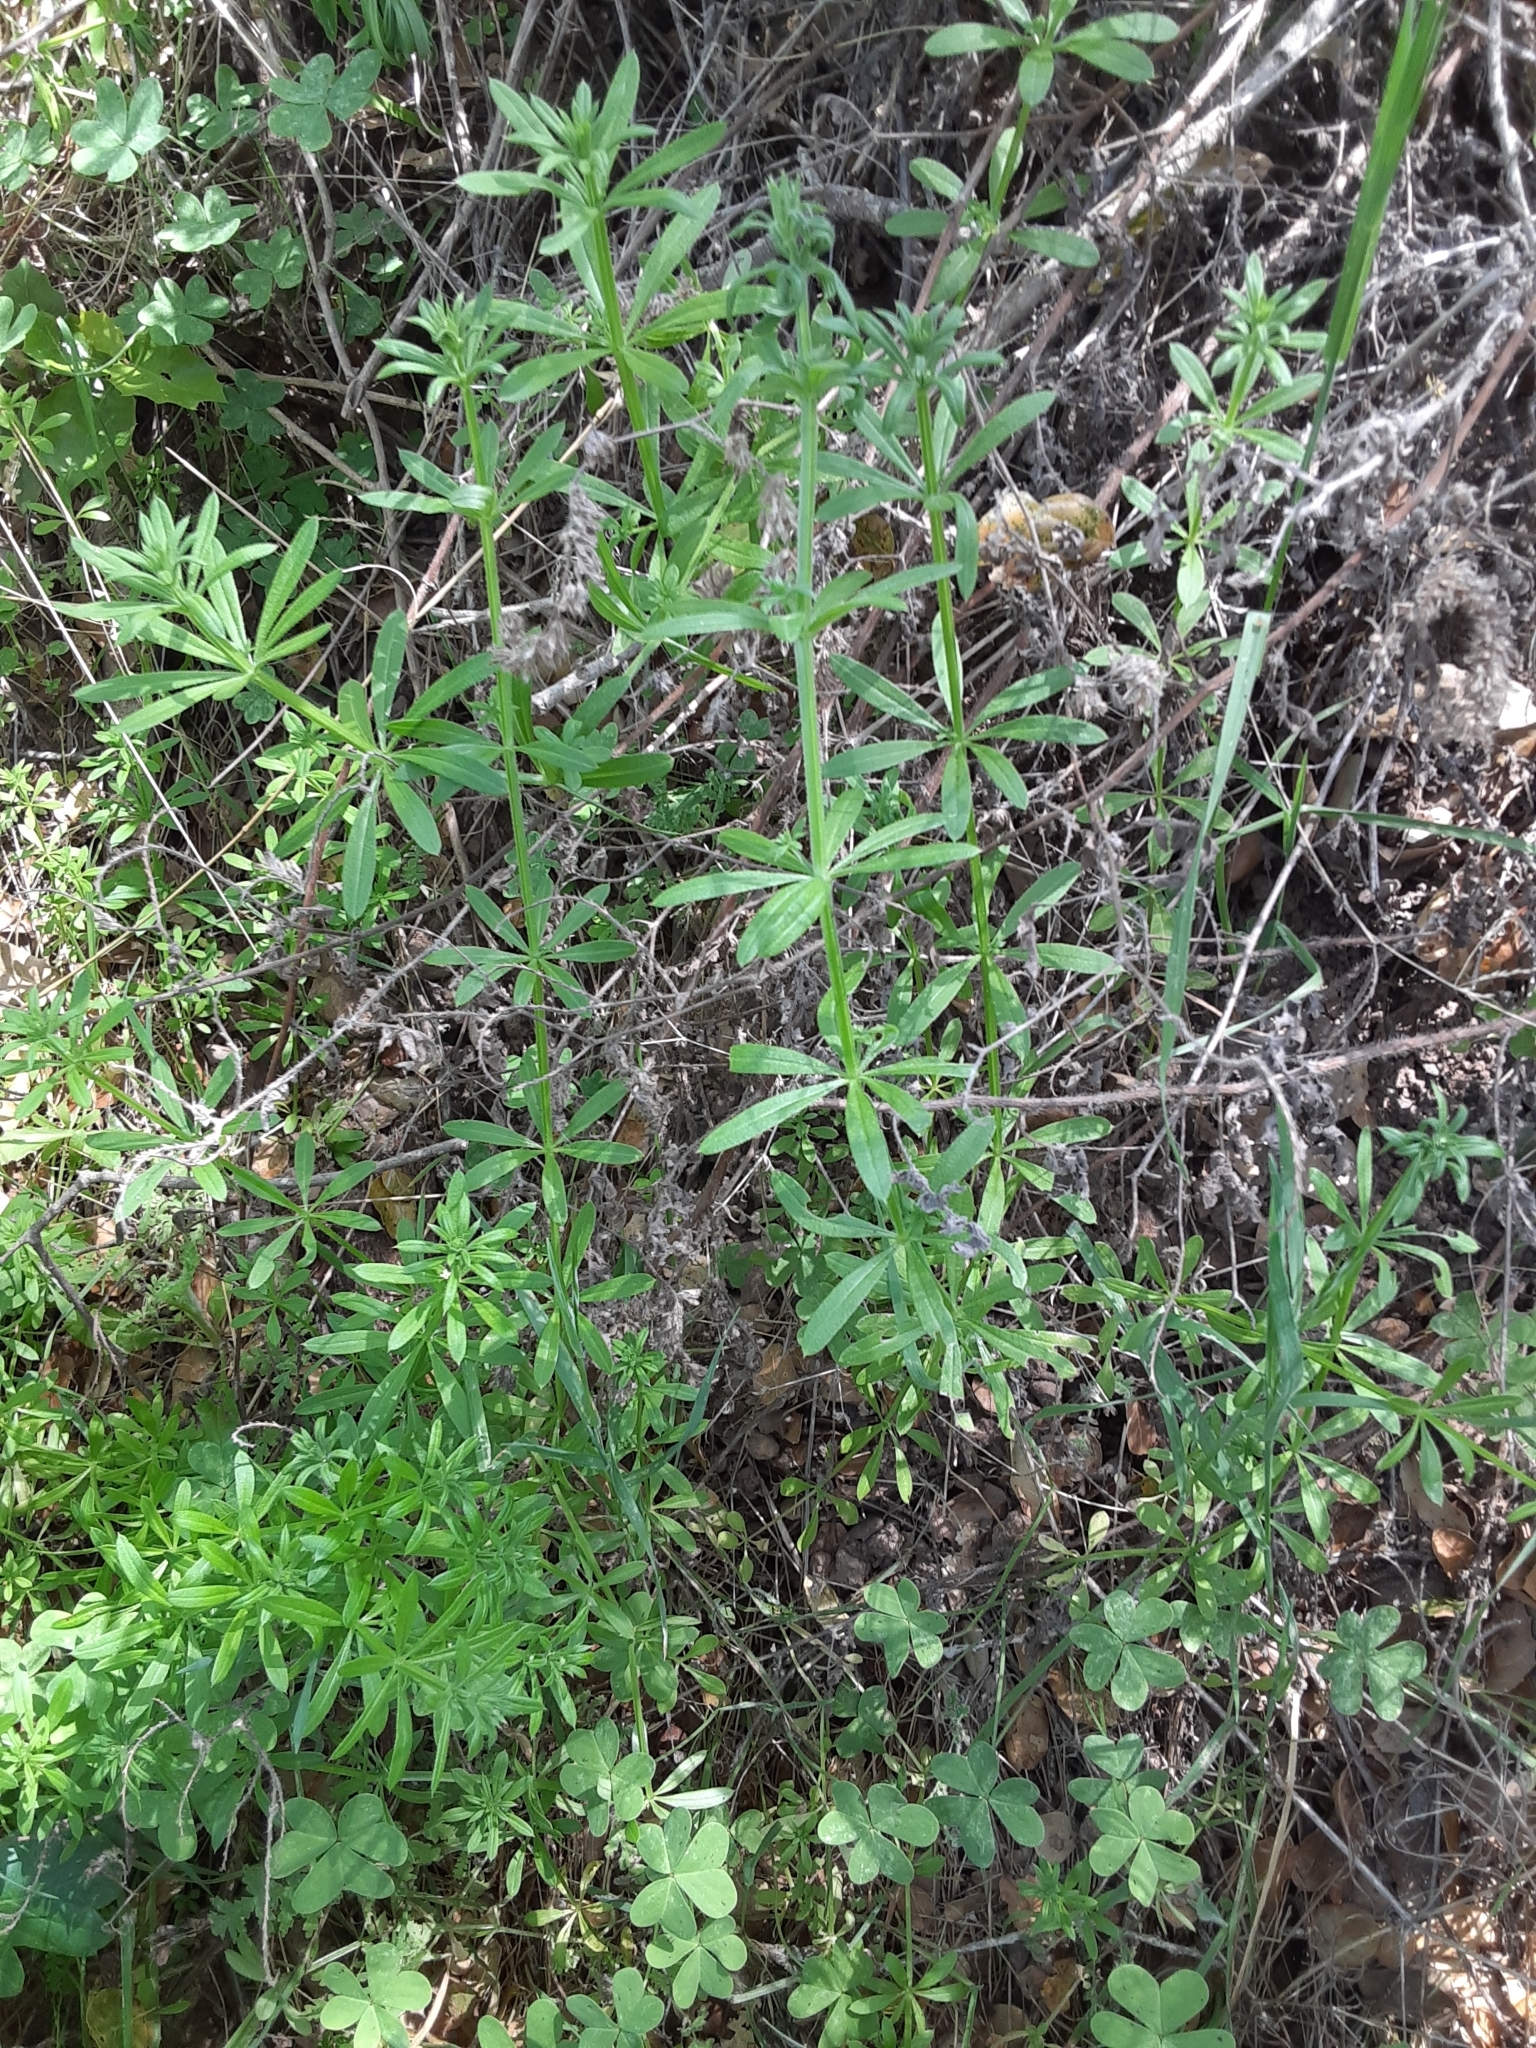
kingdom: Plantae
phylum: Tracheophyta
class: Magnoliopsida
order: Gentianales
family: Rubiaceae
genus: Galium
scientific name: Galium aparine
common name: Cleavers
